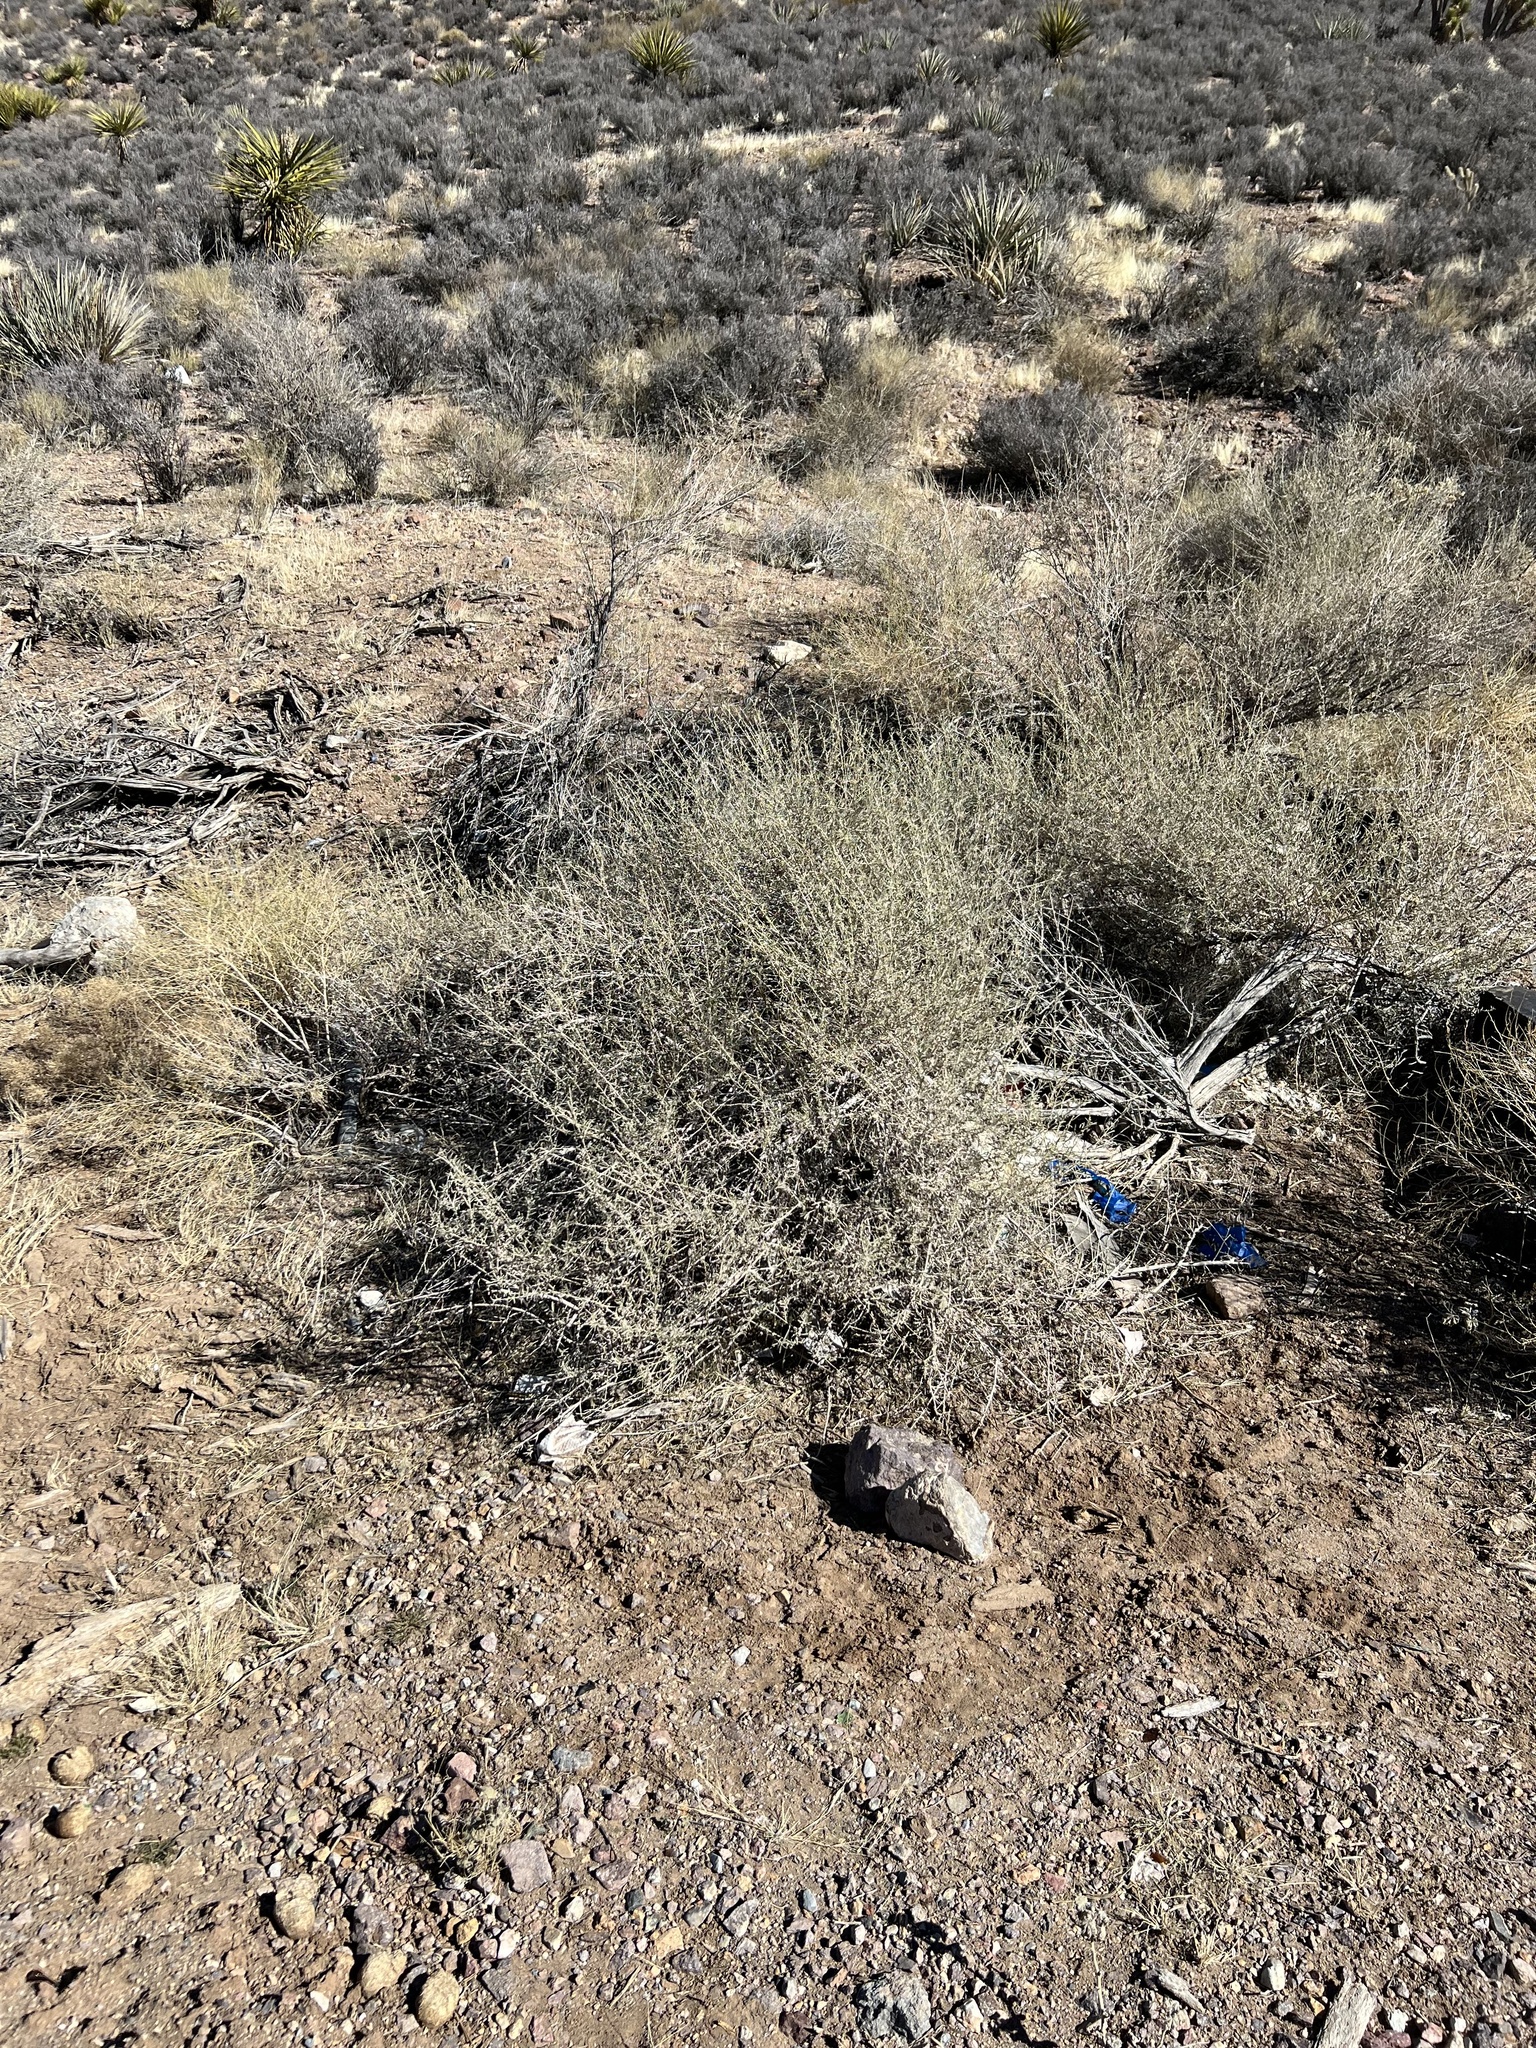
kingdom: Plantae
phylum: Tracheophyta
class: Magnoliopsida
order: Caryophyllales
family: Amaranthaceae
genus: Atriplex
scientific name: Atriplex canescens
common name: Four-wing saltbush
